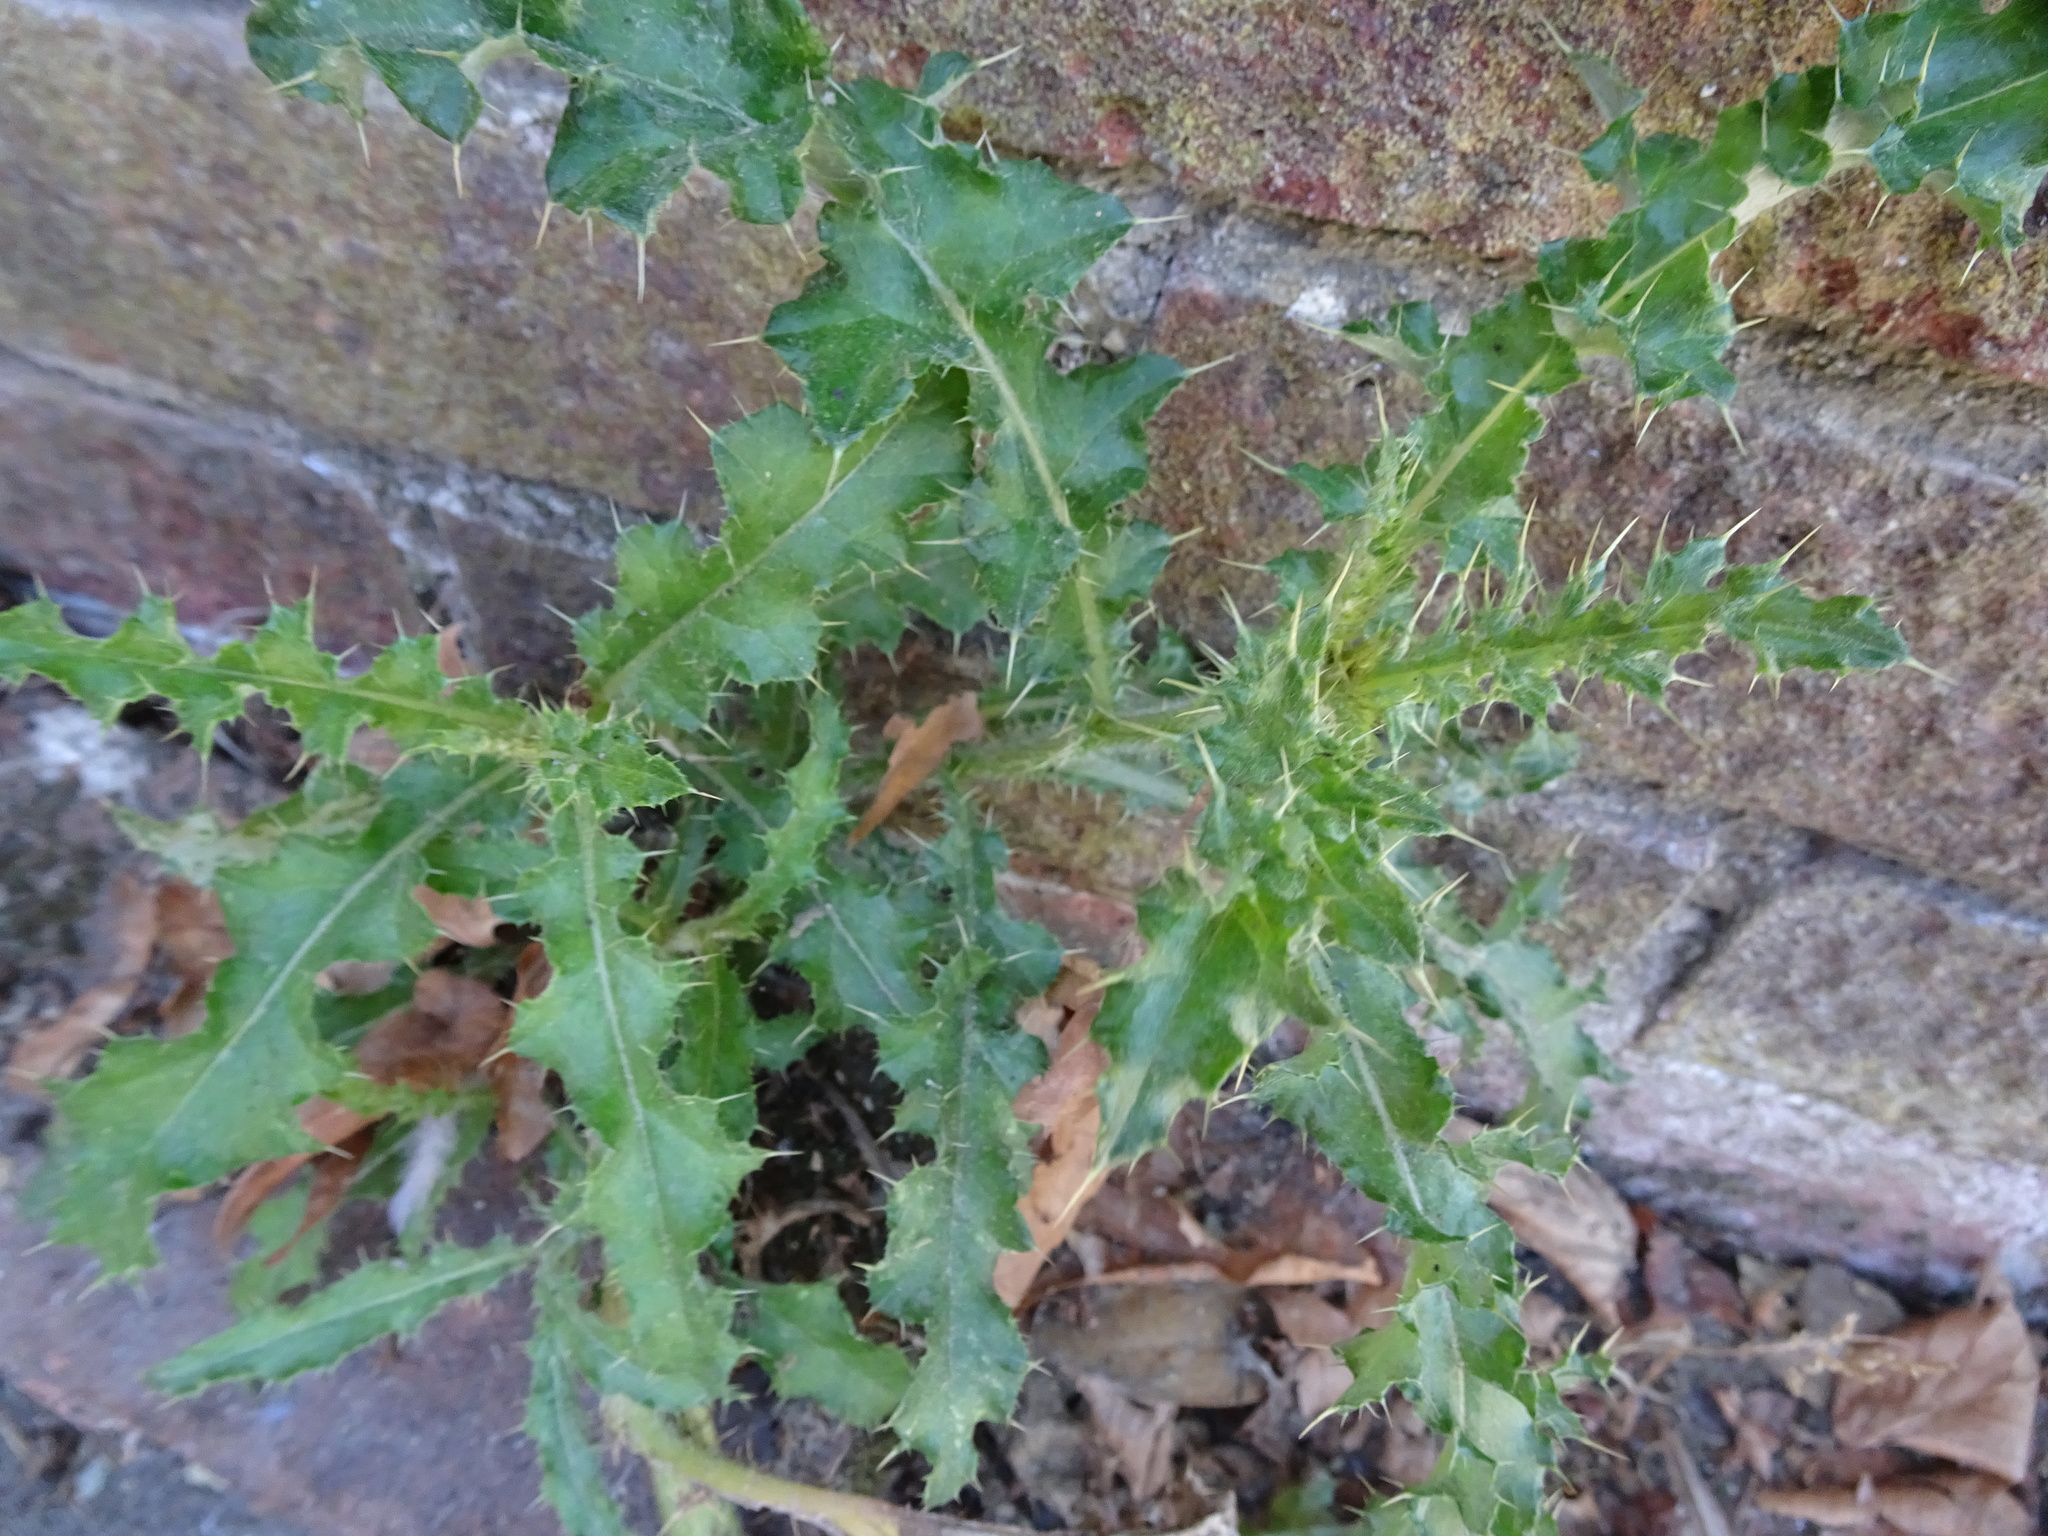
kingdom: Plantae
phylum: Tracheophyta
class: Magnoliopsida
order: Asterales
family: Asteraceae
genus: Cirsium
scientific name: Cirsium arvense
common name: Creeping thistle
